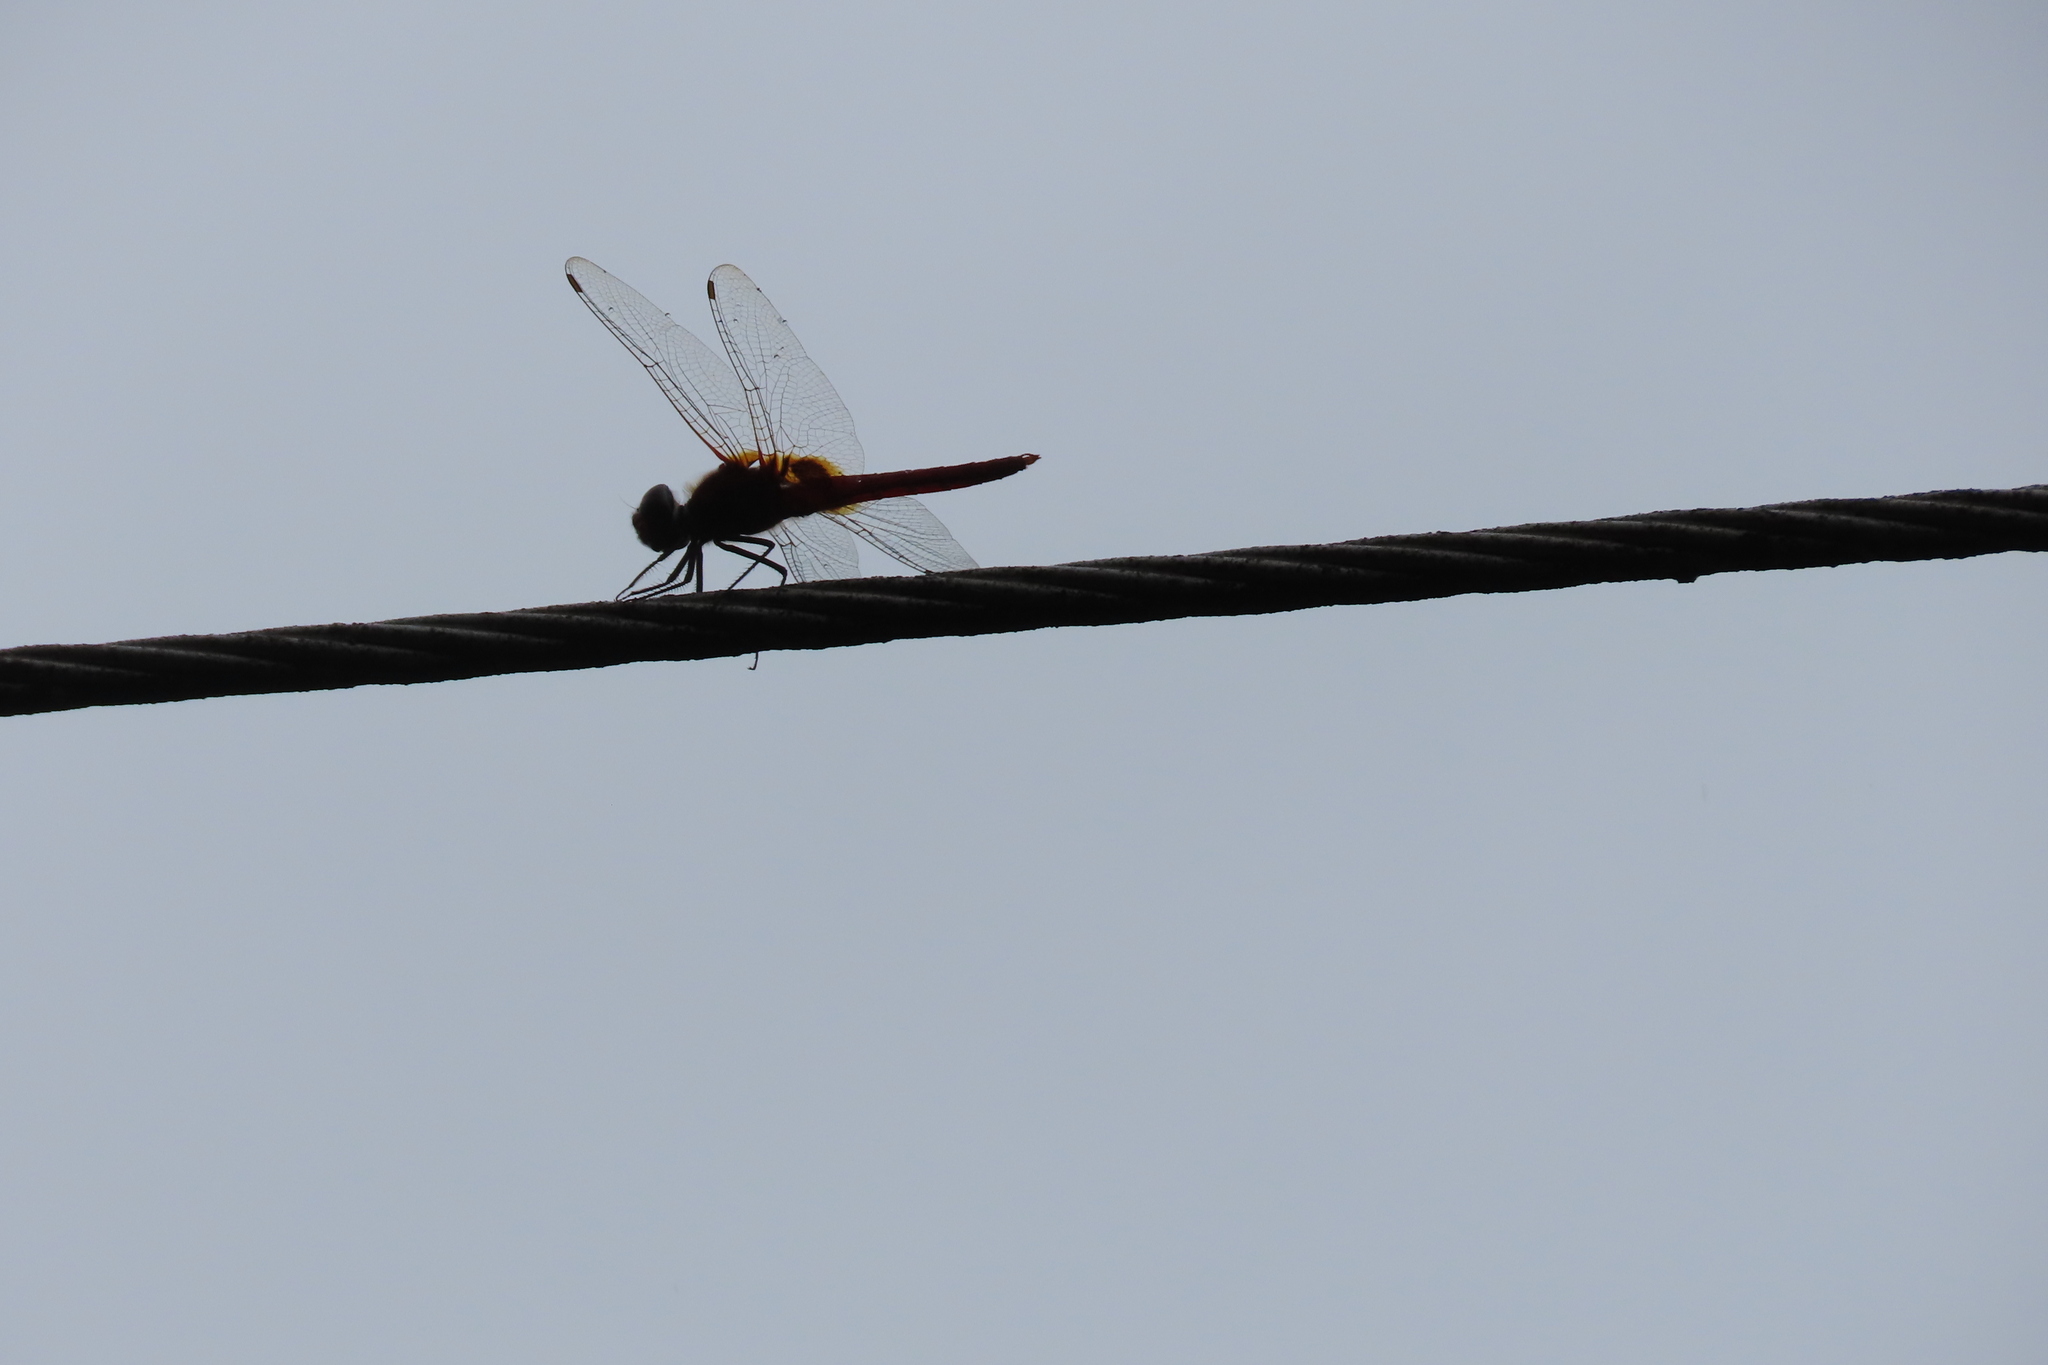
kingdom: Animalia
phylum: Arthropoda
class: Insecta
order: Odonata
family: Libellulidae
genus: Urothemis
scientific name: Urothemis signata
